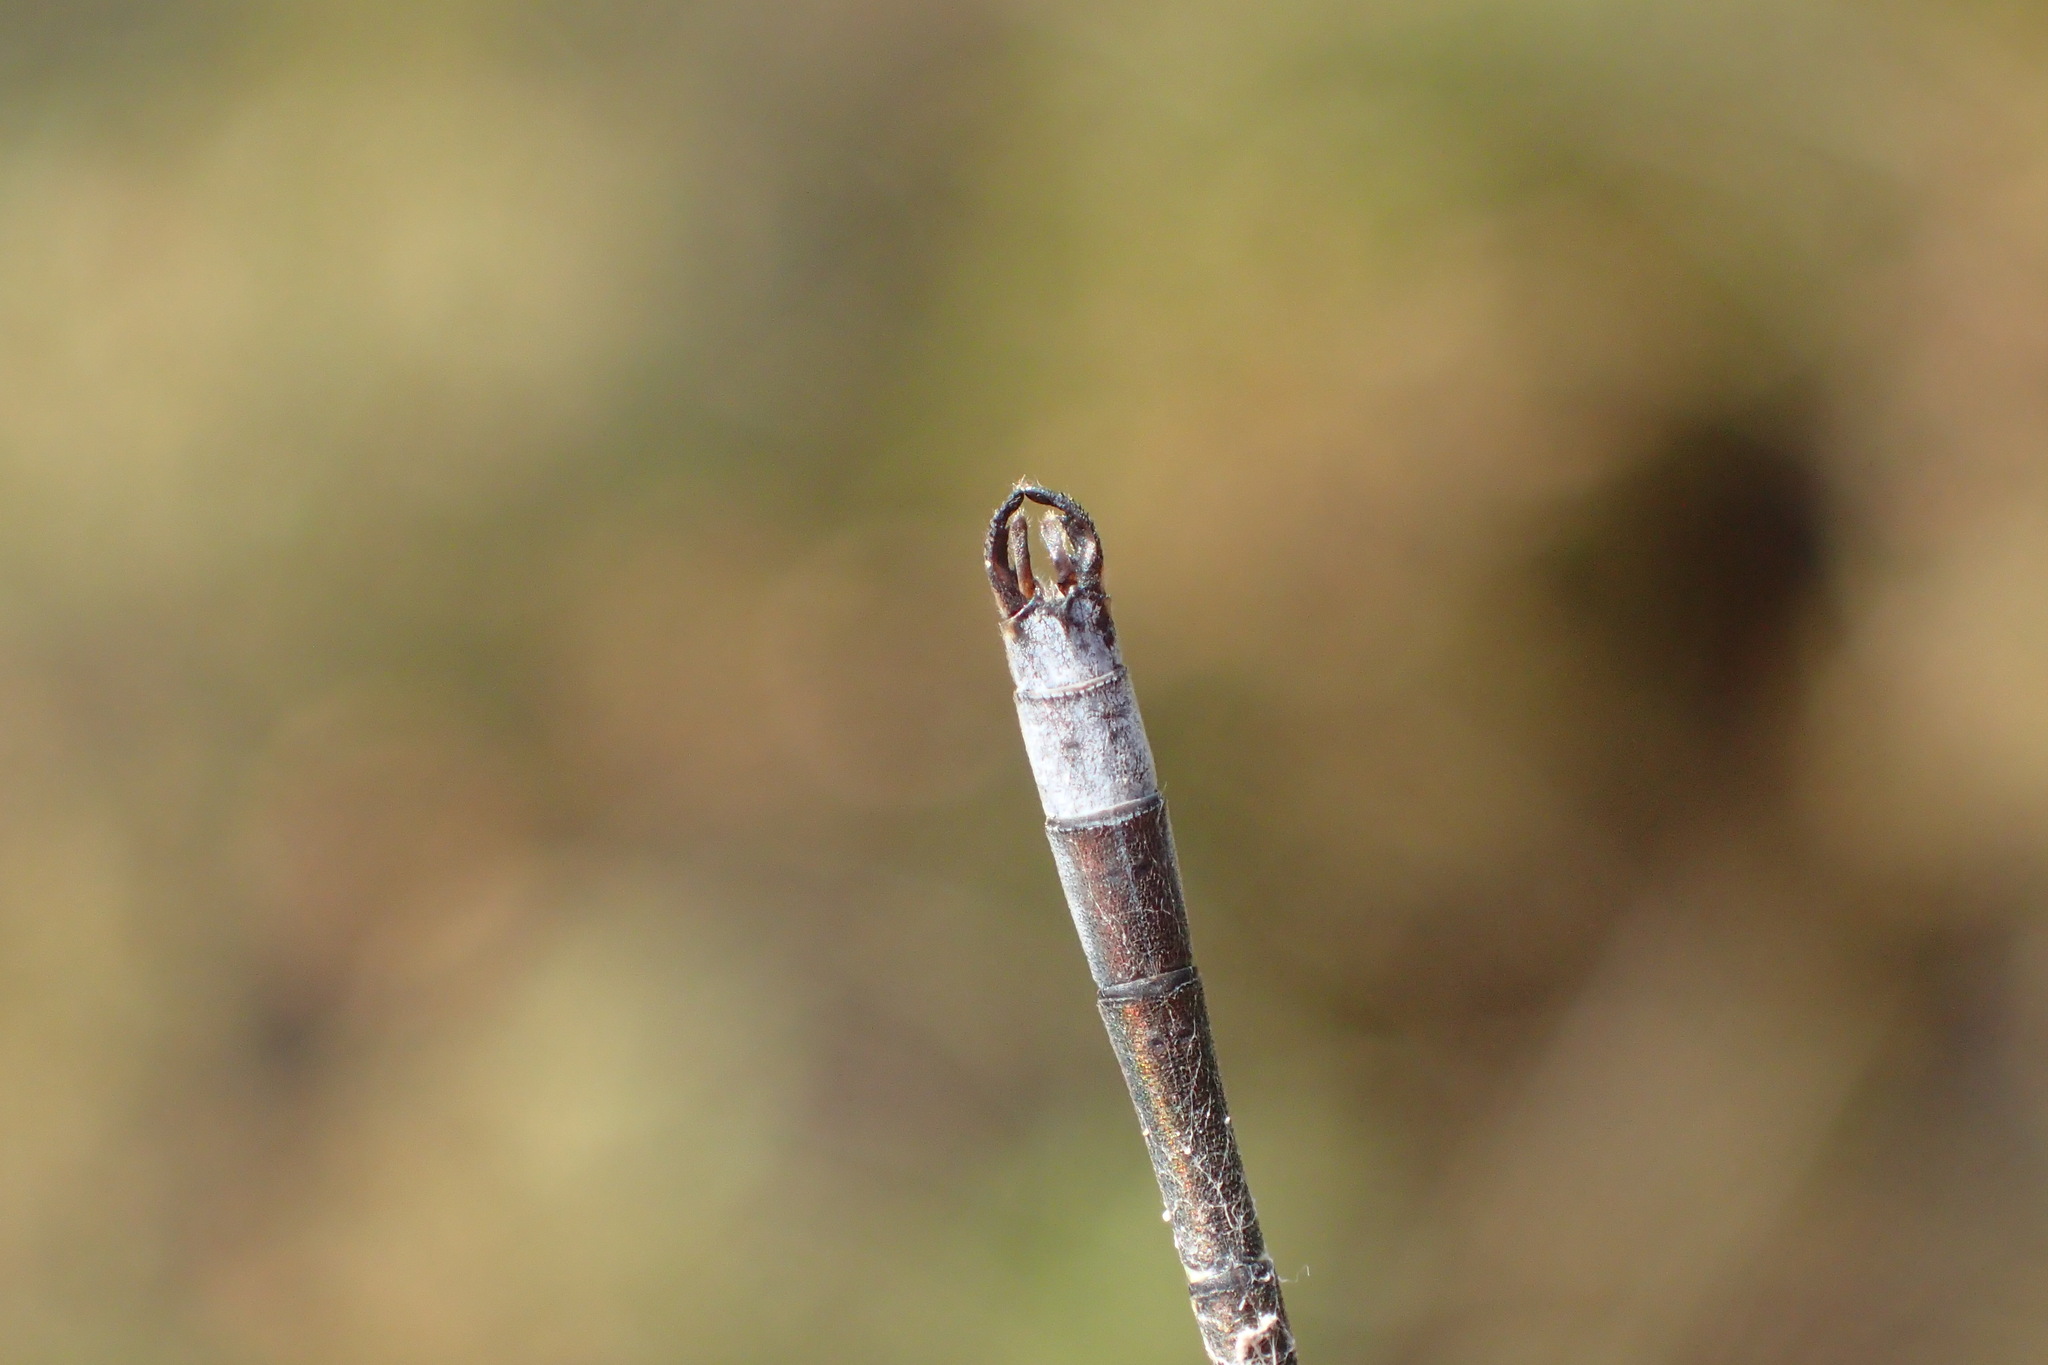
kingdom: Animalia
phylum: Arthropoda
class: Insecta
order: Odonata
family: Lestidae
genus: Lestes
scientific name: Lestes disjunctus
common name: Northern spreadwing
